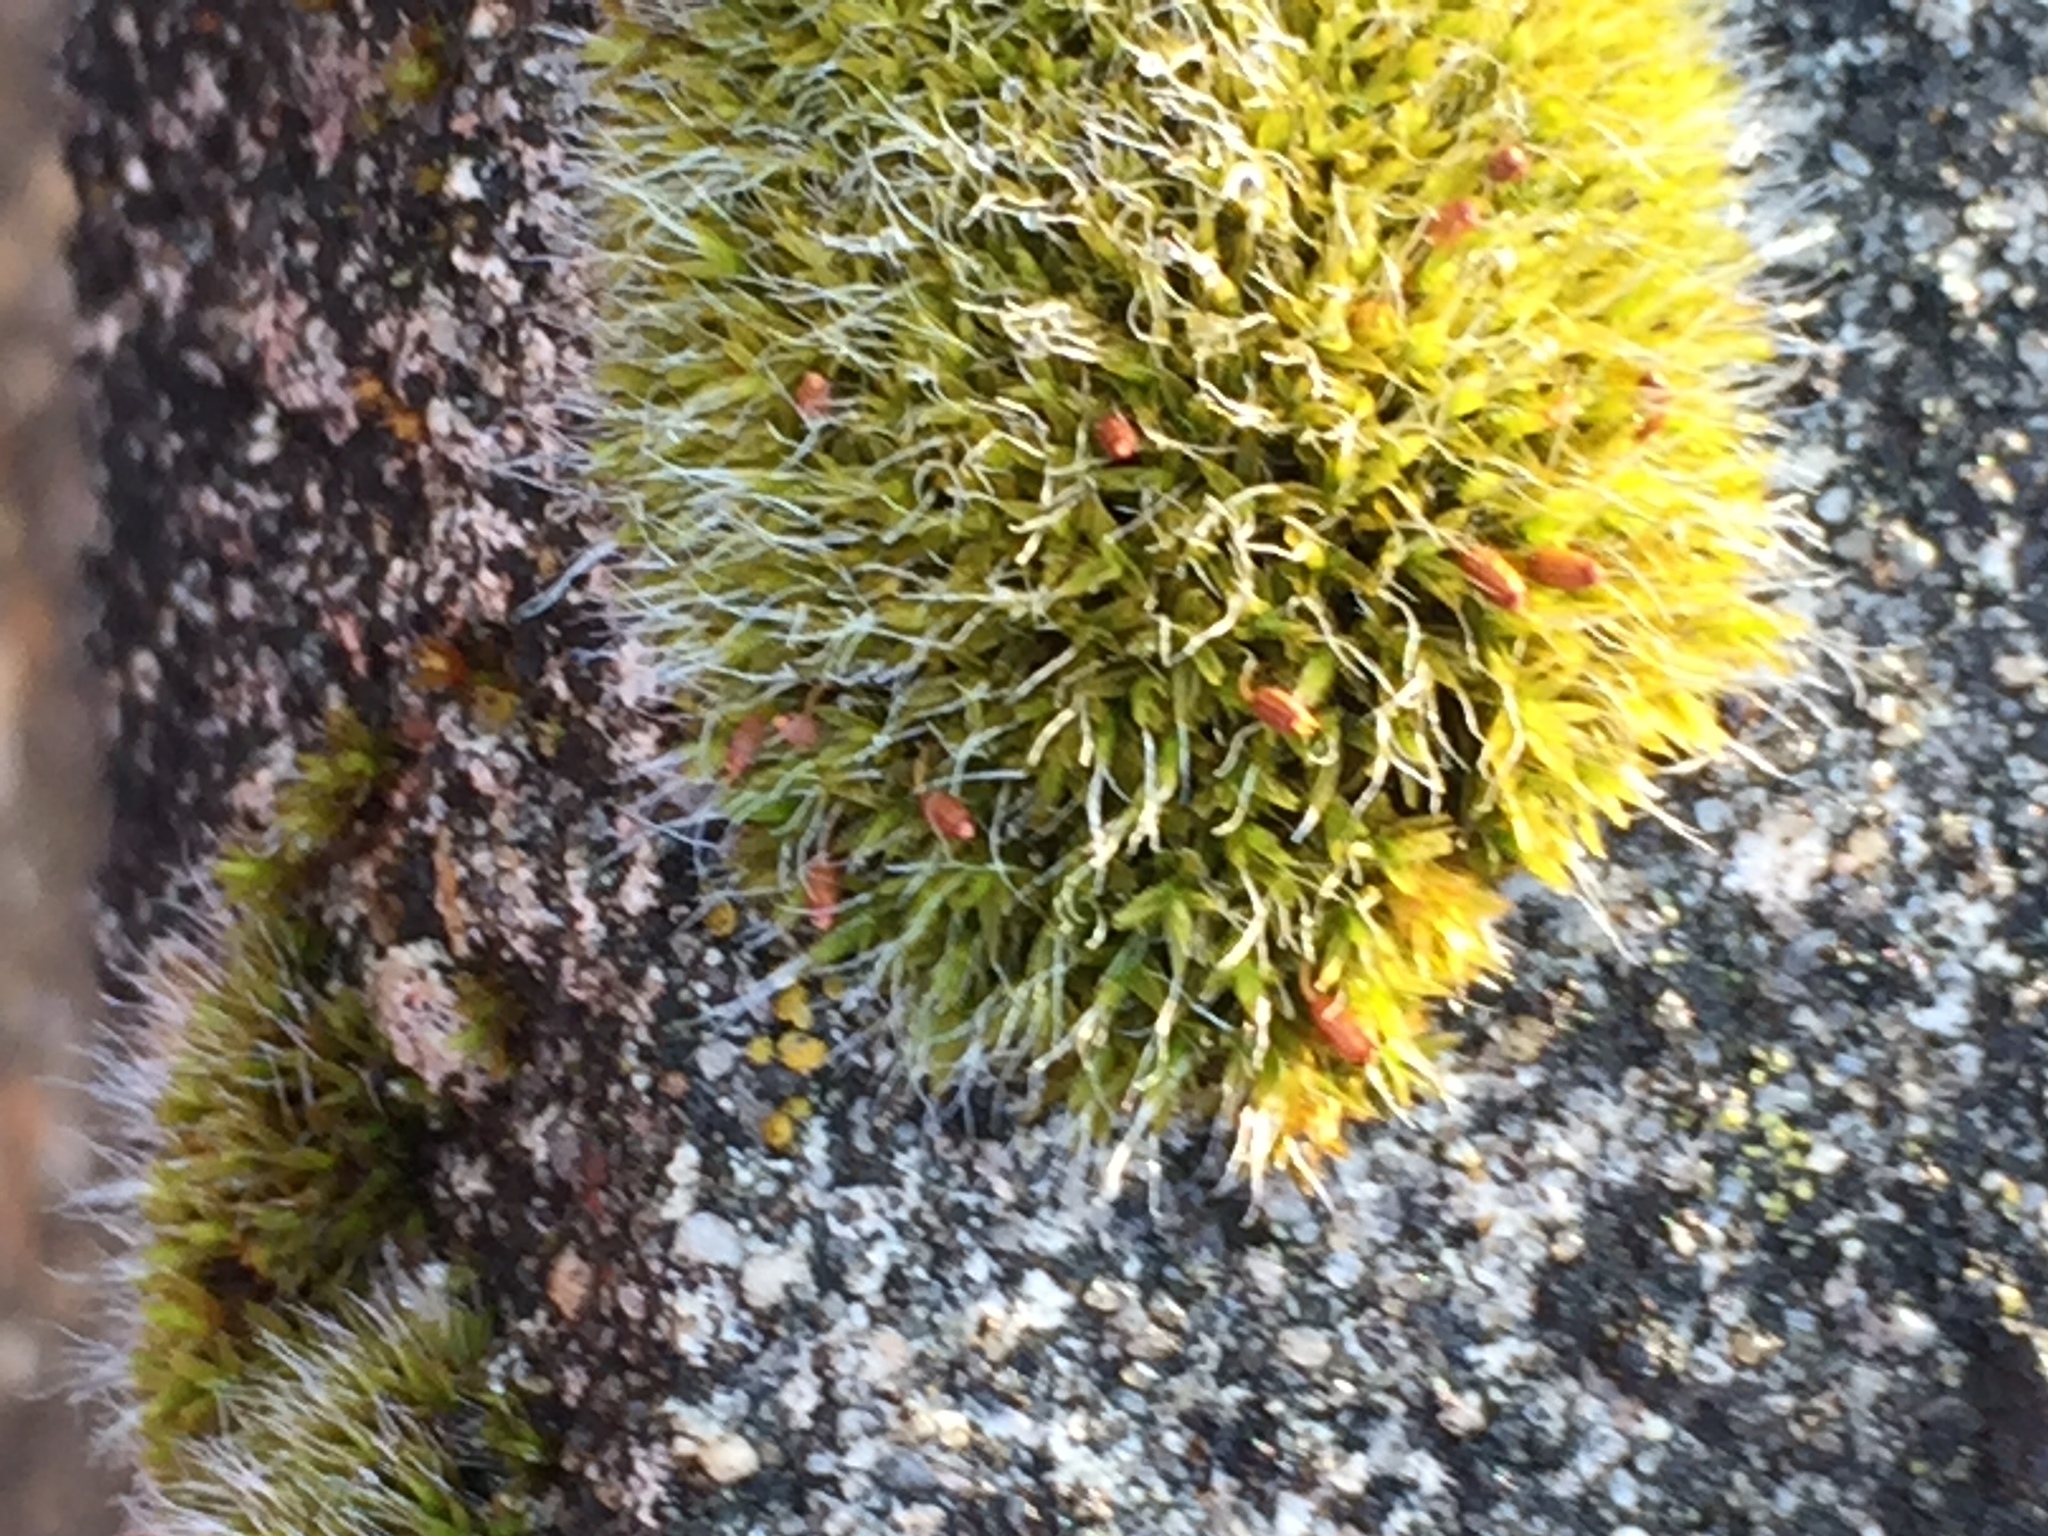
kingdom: Plantae
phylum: Bryophyta
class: Bryopsida
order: Grimmiales
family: Grimmiaceae
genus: Grimmia
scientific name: Grimmia pulvinata
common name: Grey-cushioned grimmia
